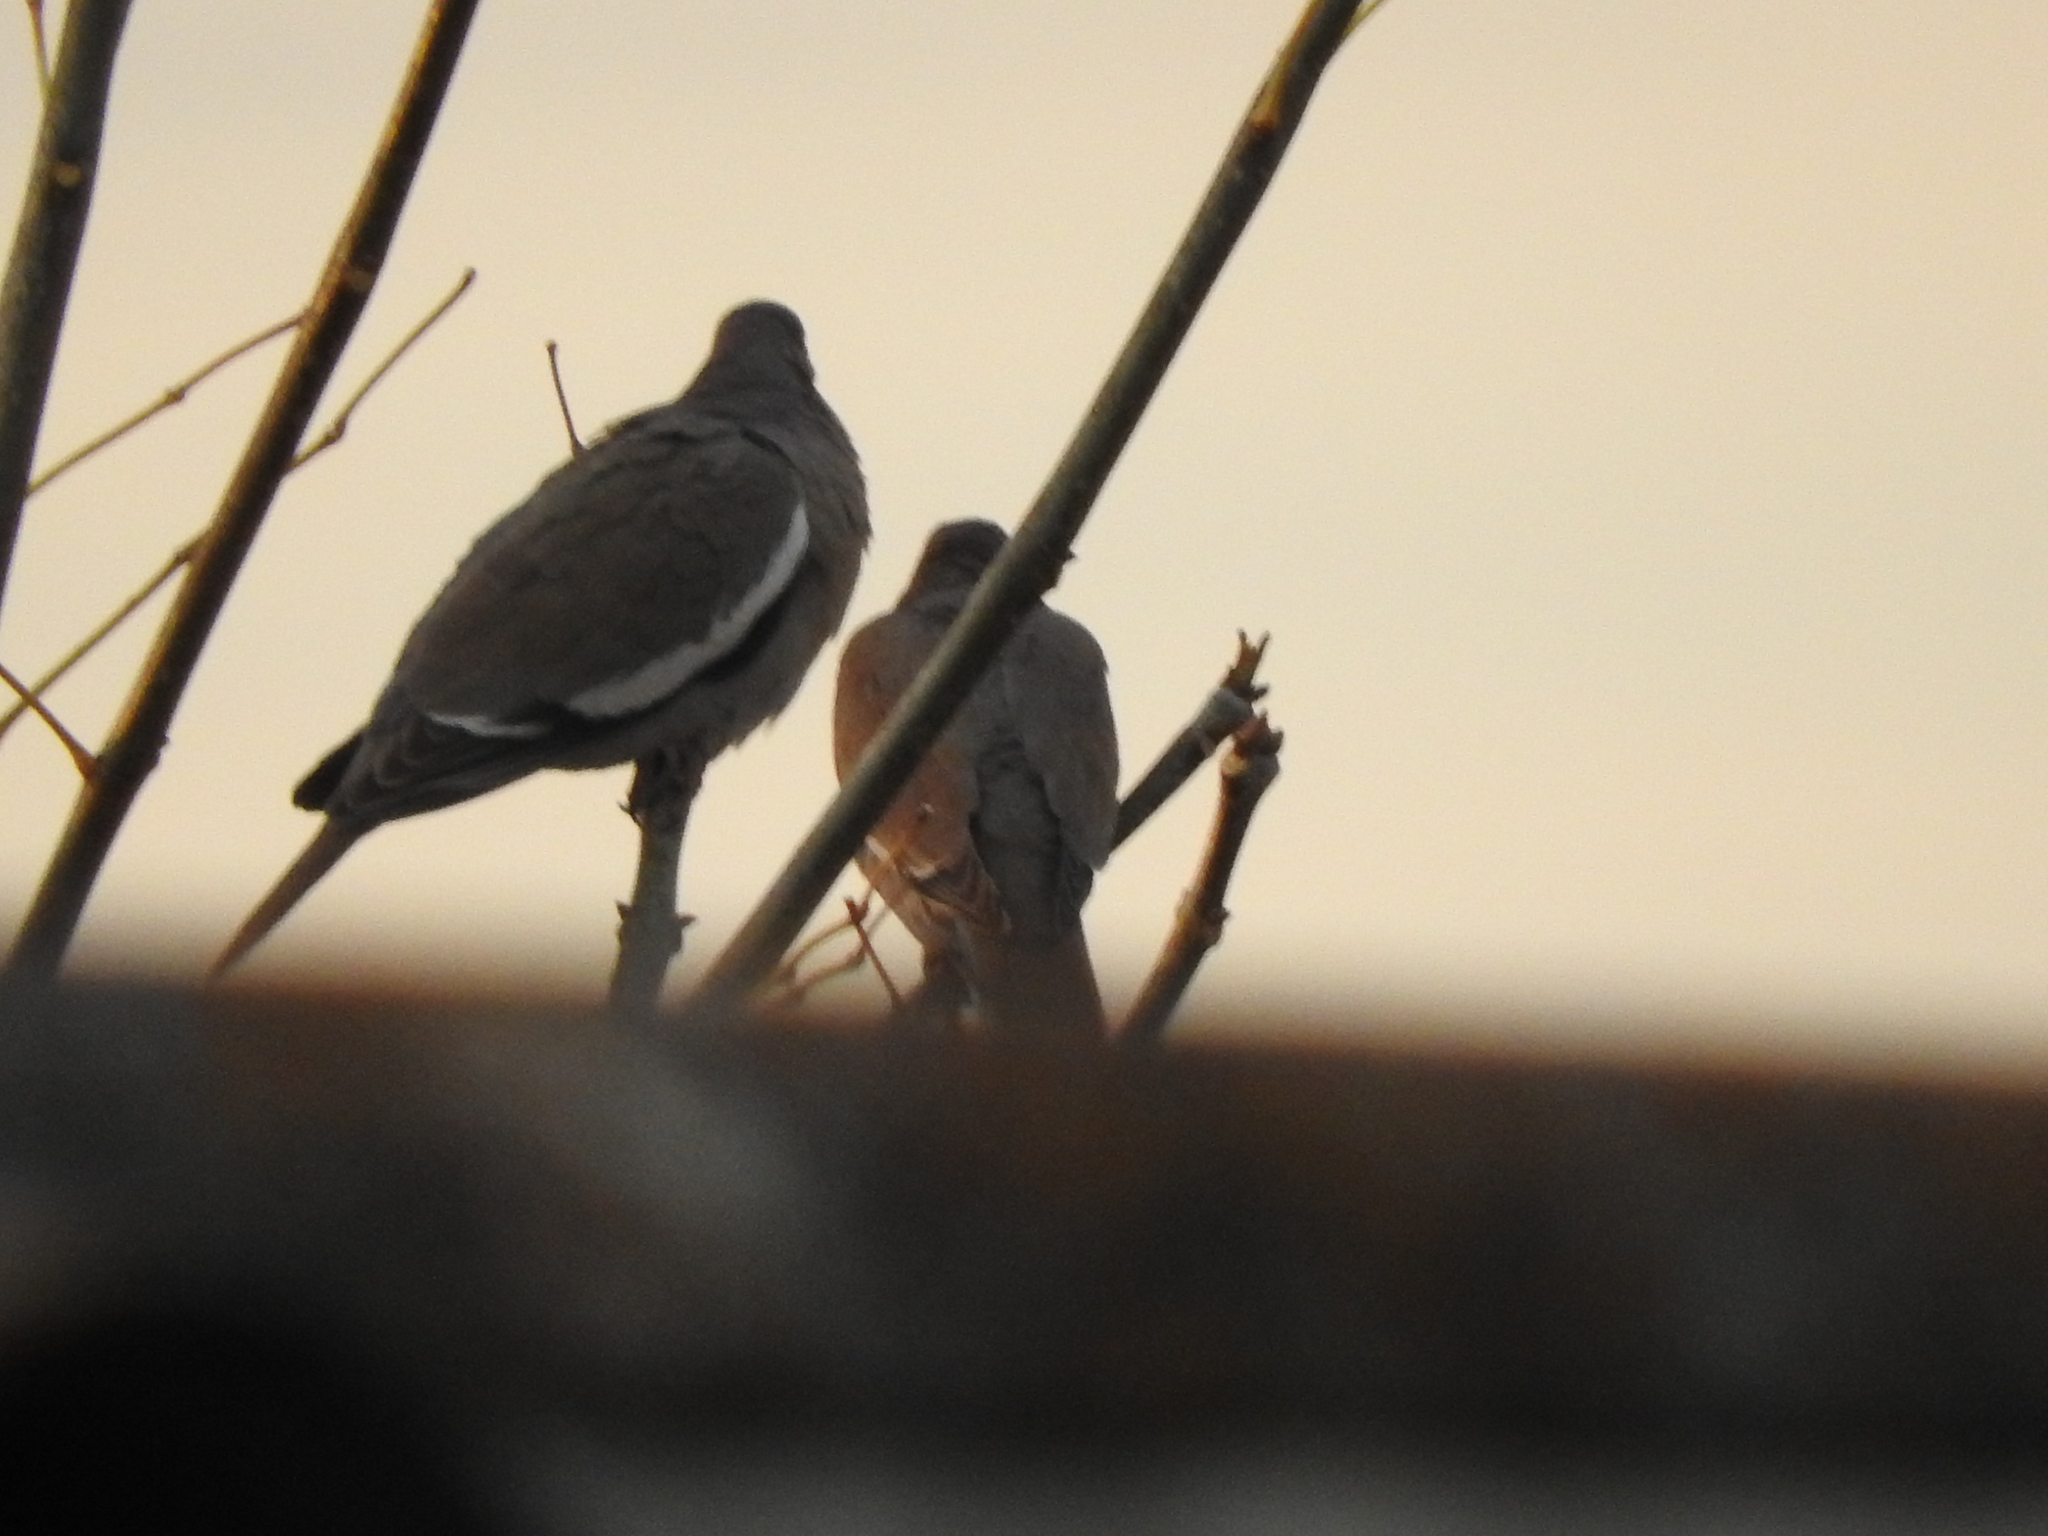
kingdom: Animalia
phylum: Chordata
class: Aves
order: Columbiformes
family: Columbidae
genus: Zenaida
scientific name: Zenaida asiatica
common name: White-winged dove
